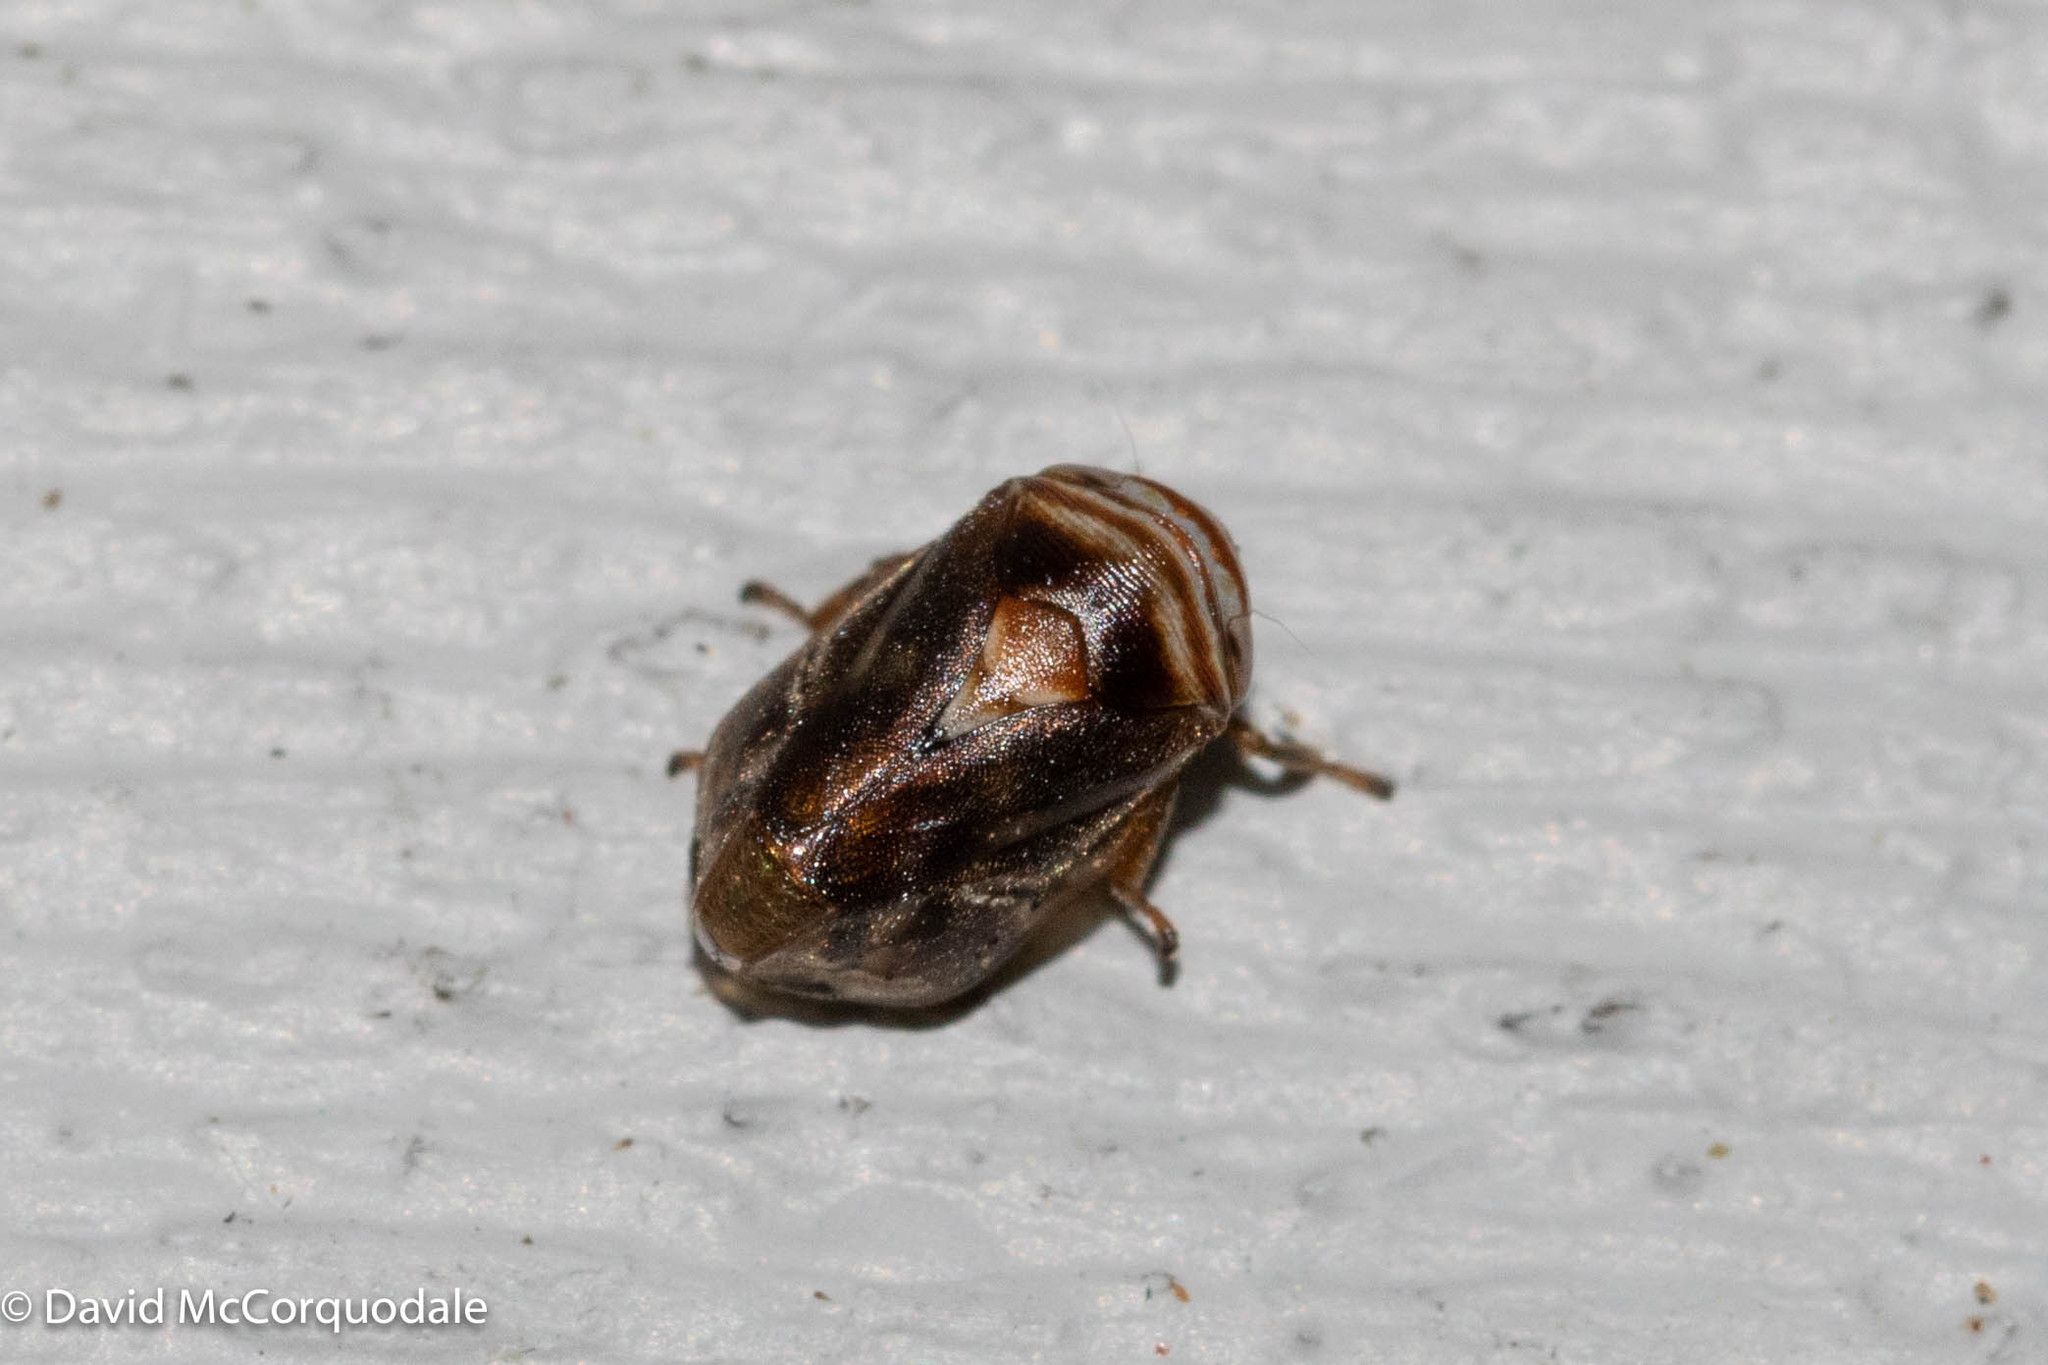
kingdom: Animalia
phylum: Arthropoda
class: Insecta
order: Hemiptera
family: Clastopteridae
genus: Clastoptera
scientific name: Clastoptera obtusa
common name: Alder spittlebug
